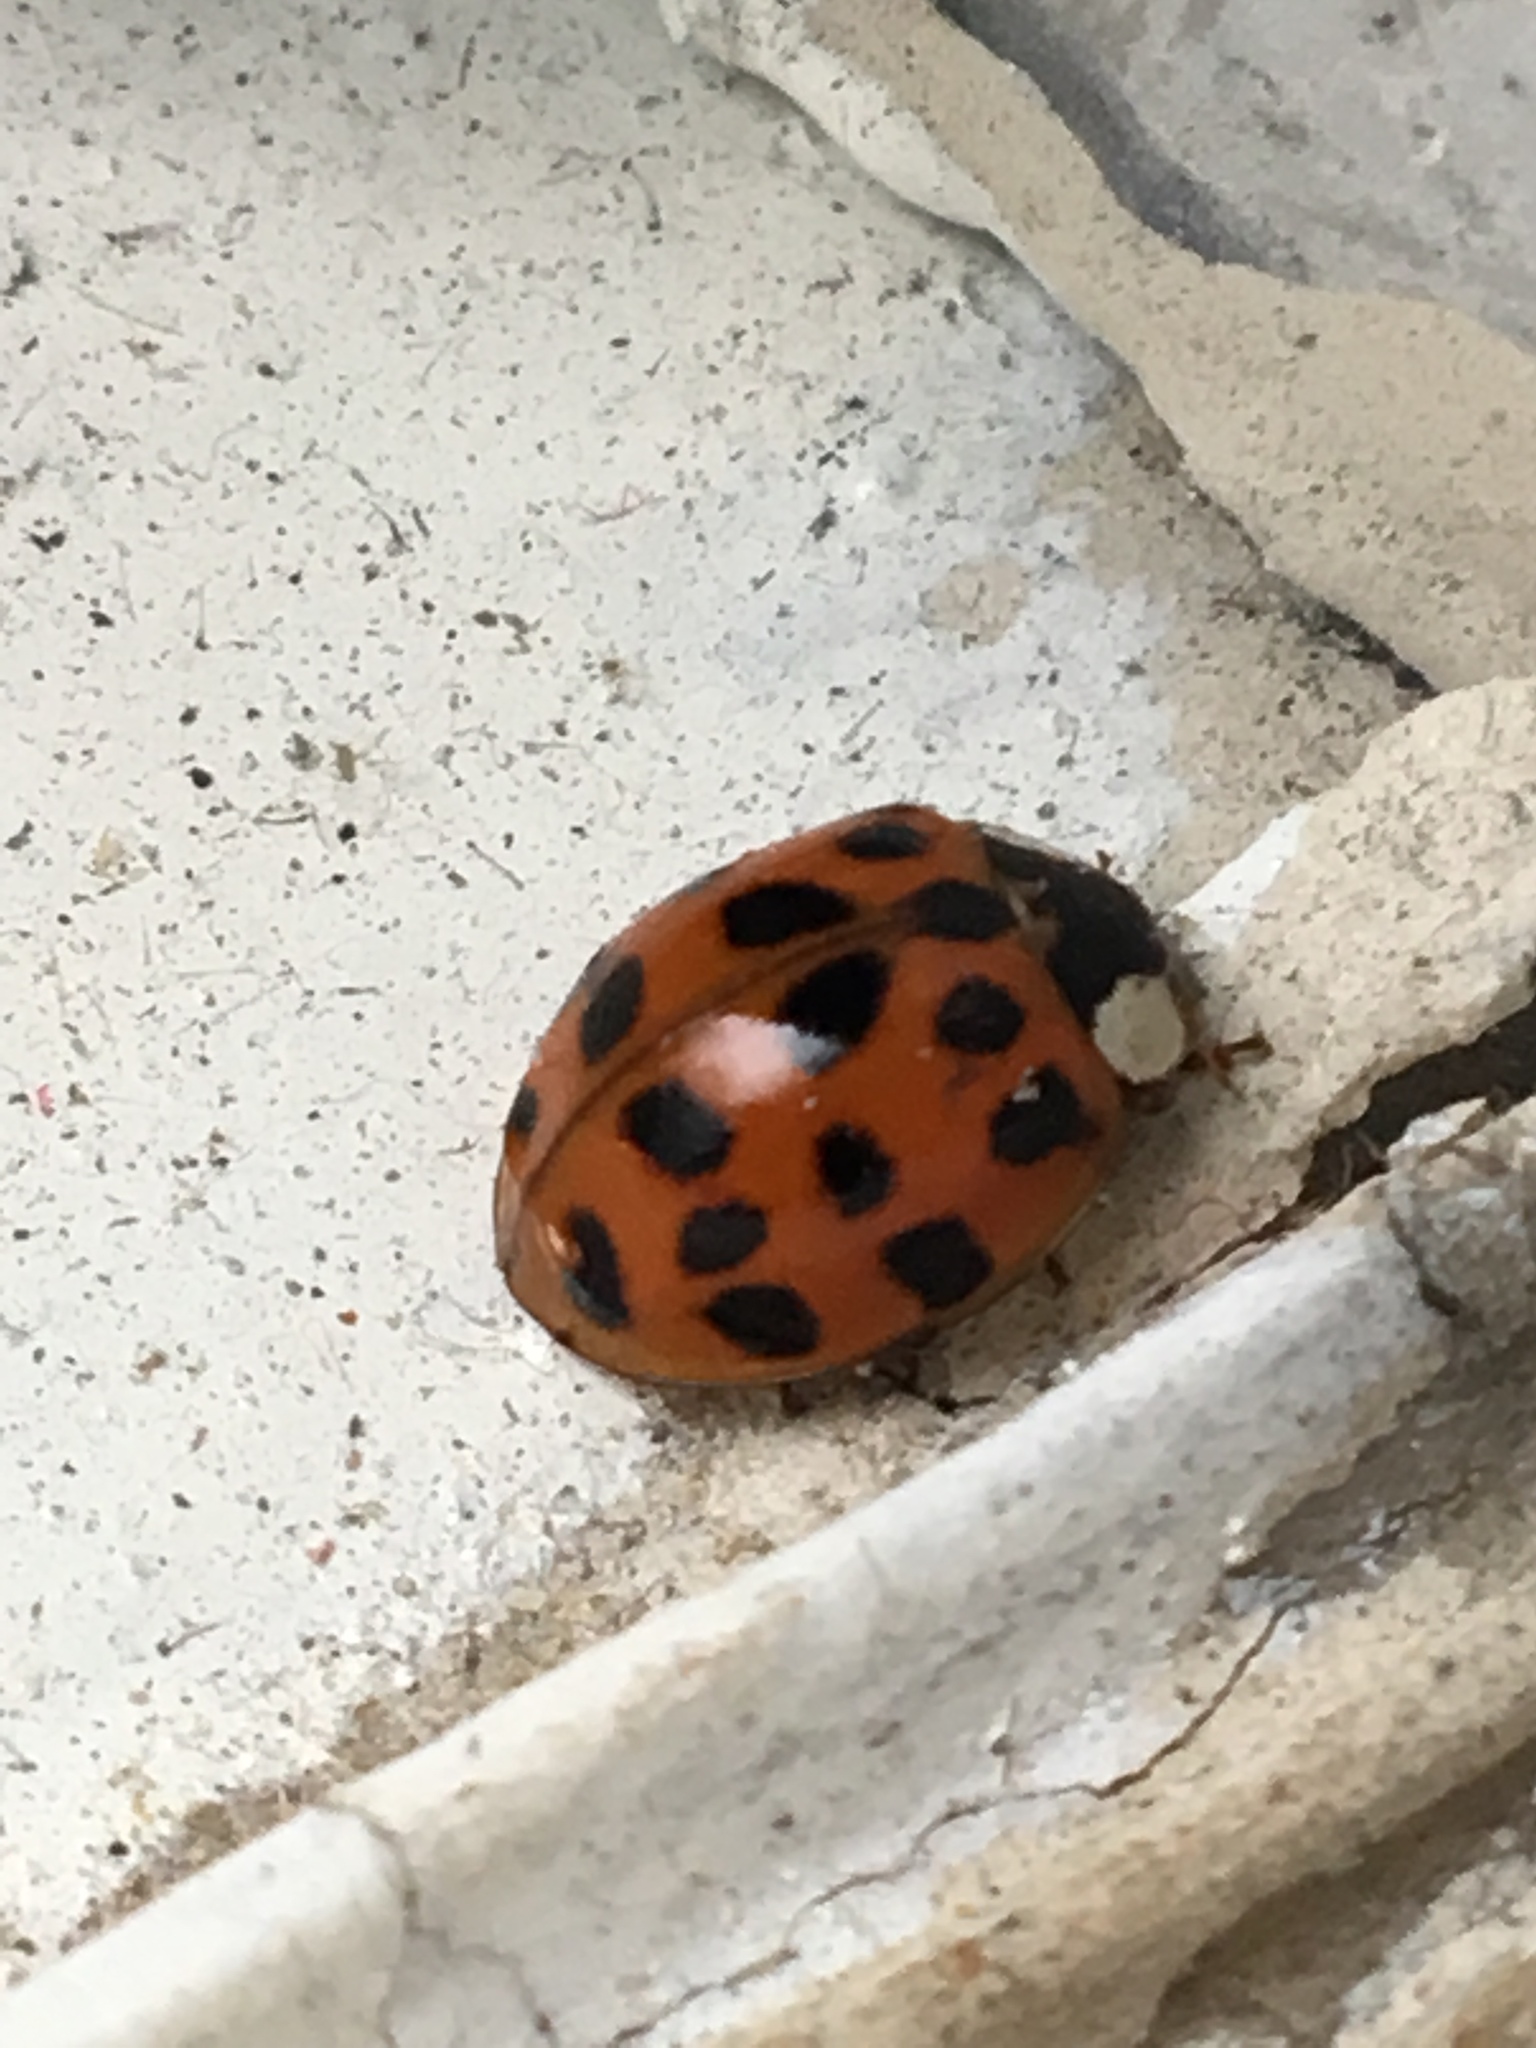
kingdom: Animalia
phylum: Arthropoda
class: Insecta
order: Coleoptera
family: Coccinellidae
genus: Harmonia
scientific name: Harmonia axyridis
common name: Harlequin ladybird
